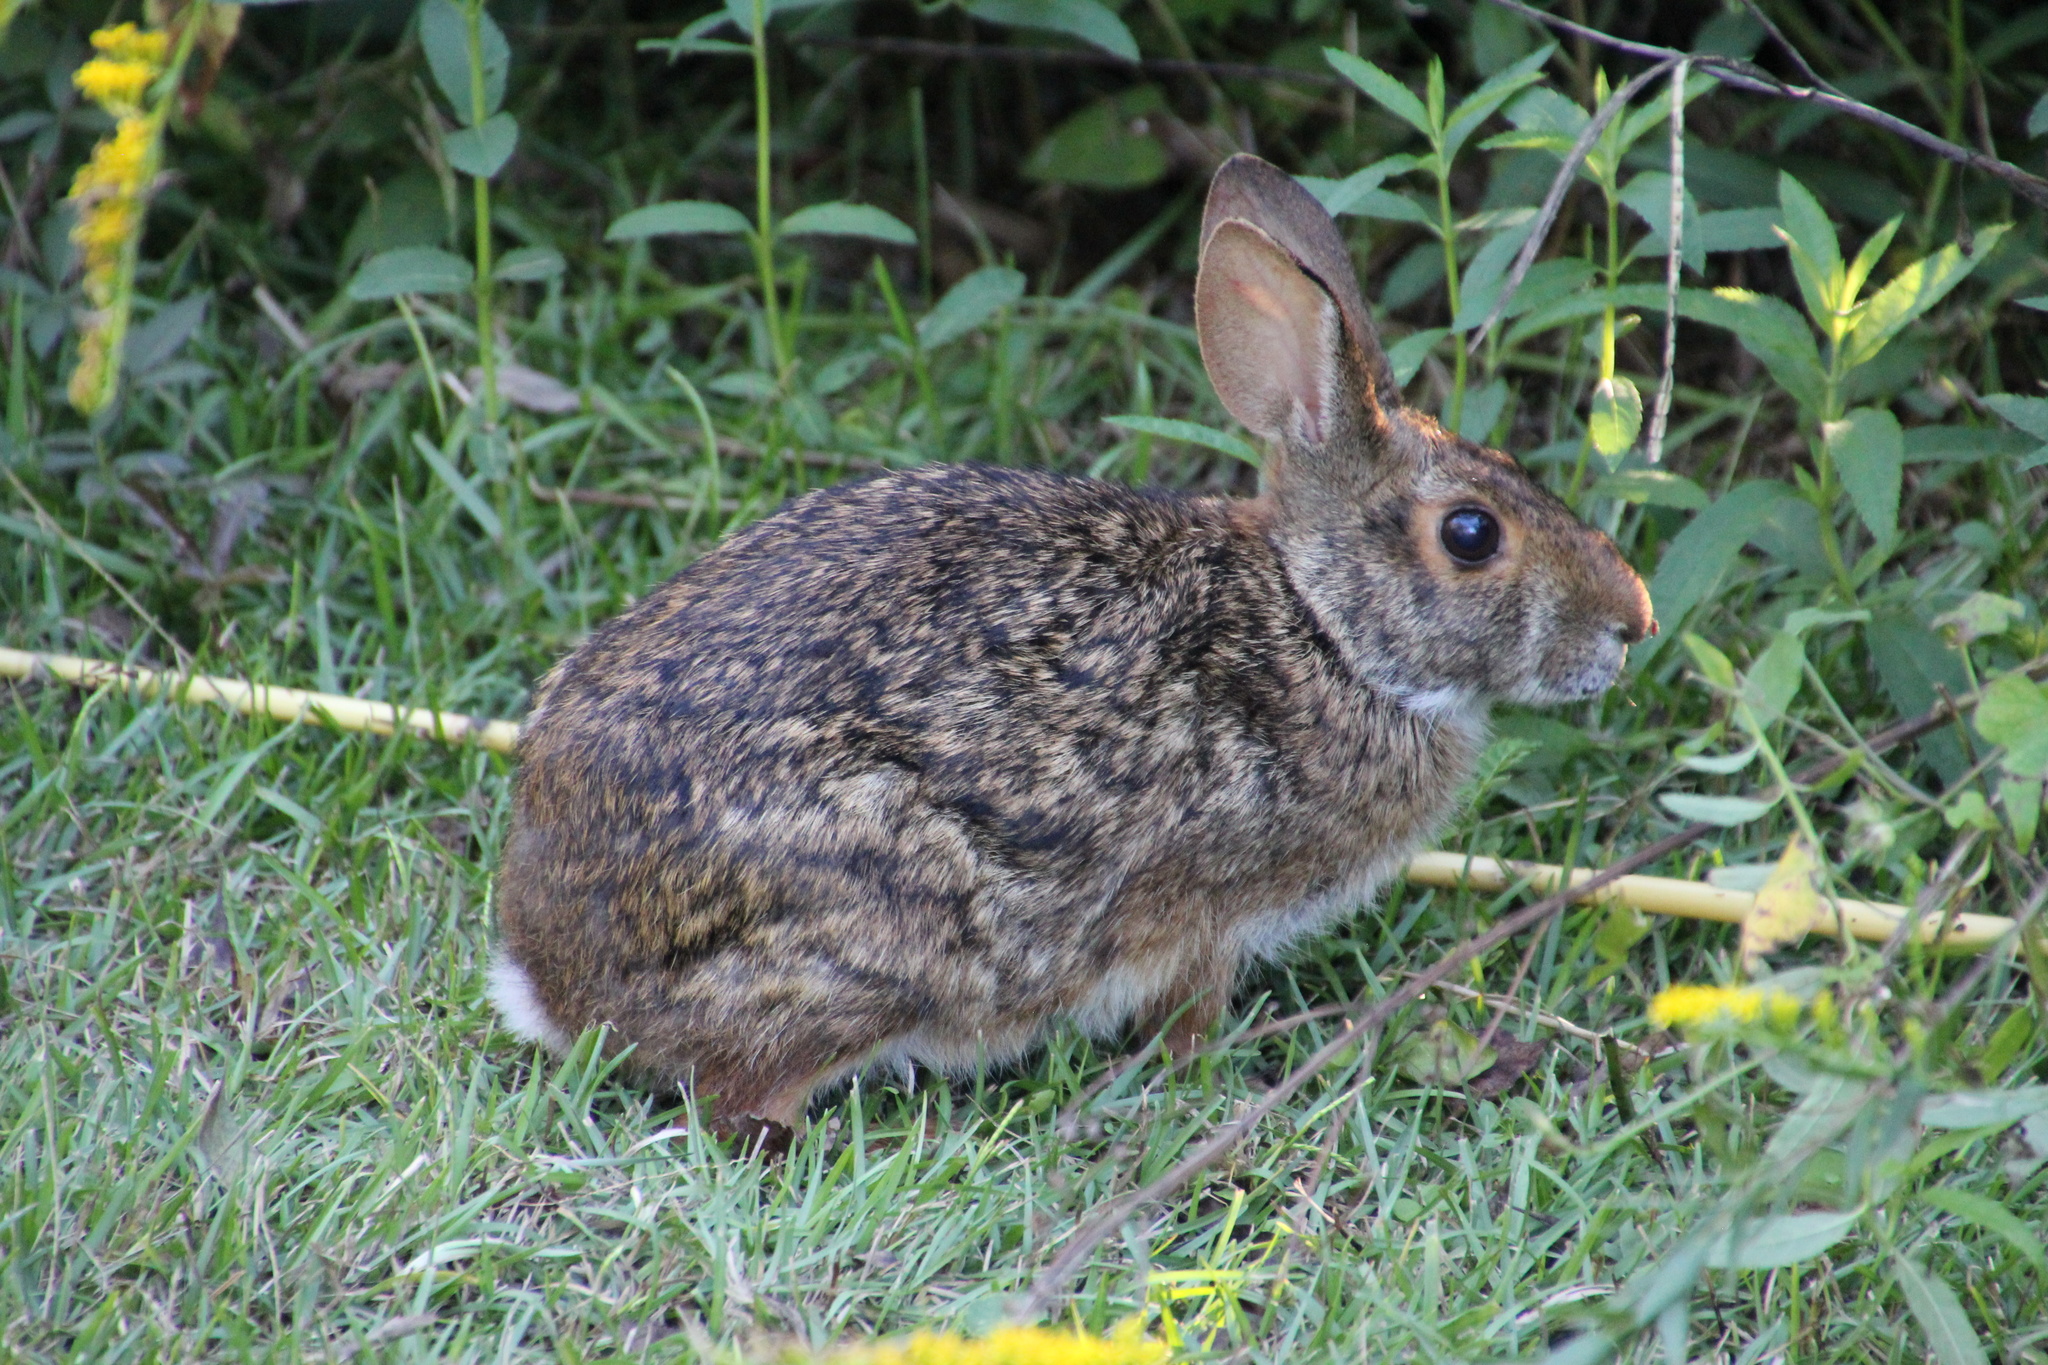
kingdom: Animalia
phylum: Chordata
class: Mammalia
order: Lagomorpha
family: Leporidae
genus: Sylvilagus
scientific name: Sylvilagus aquaticus
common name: Swamp rabbit
